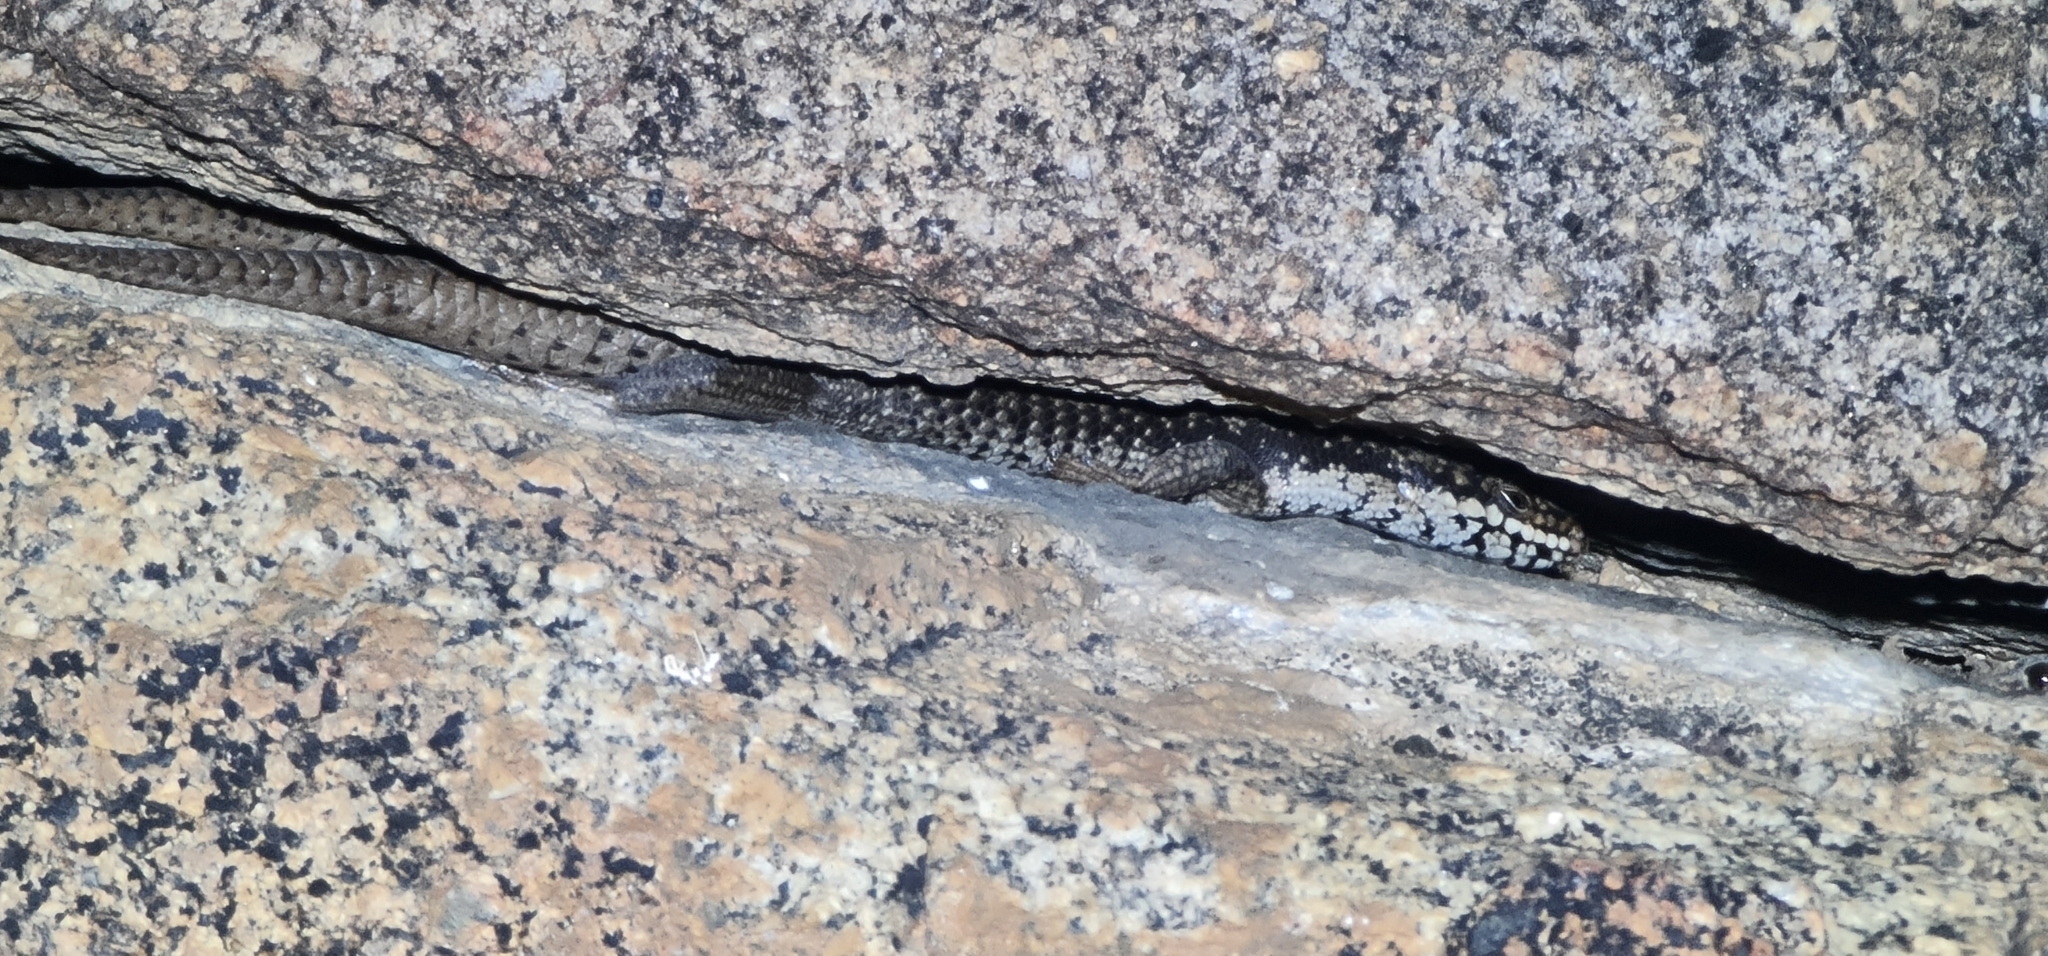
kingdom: Animalia
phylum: Chordata
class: Squamata
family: Scincidae
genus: Egernia
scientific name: Egernia striolata
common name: Tree skink
